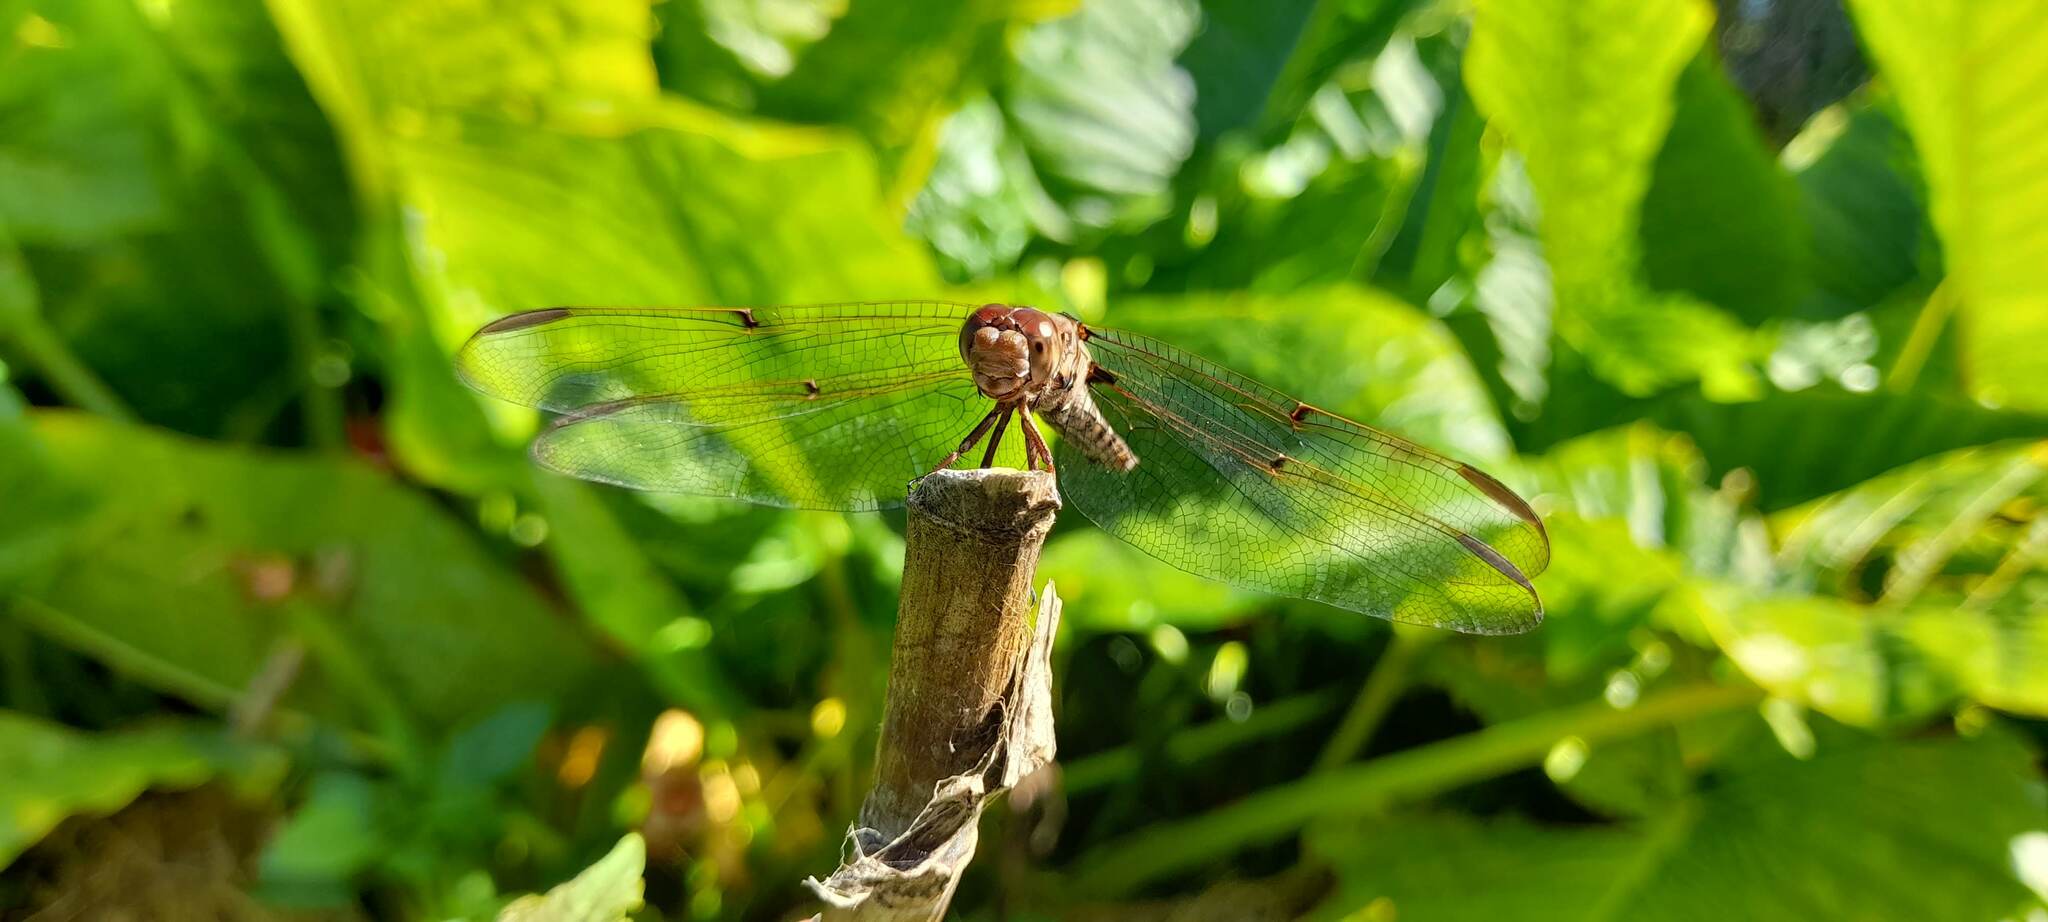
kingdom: Animalia
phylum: Arthropoda
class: Insecta
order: Odonata
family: Libellulidae
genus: Orthemis
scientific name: Orthemis nodiplaga
